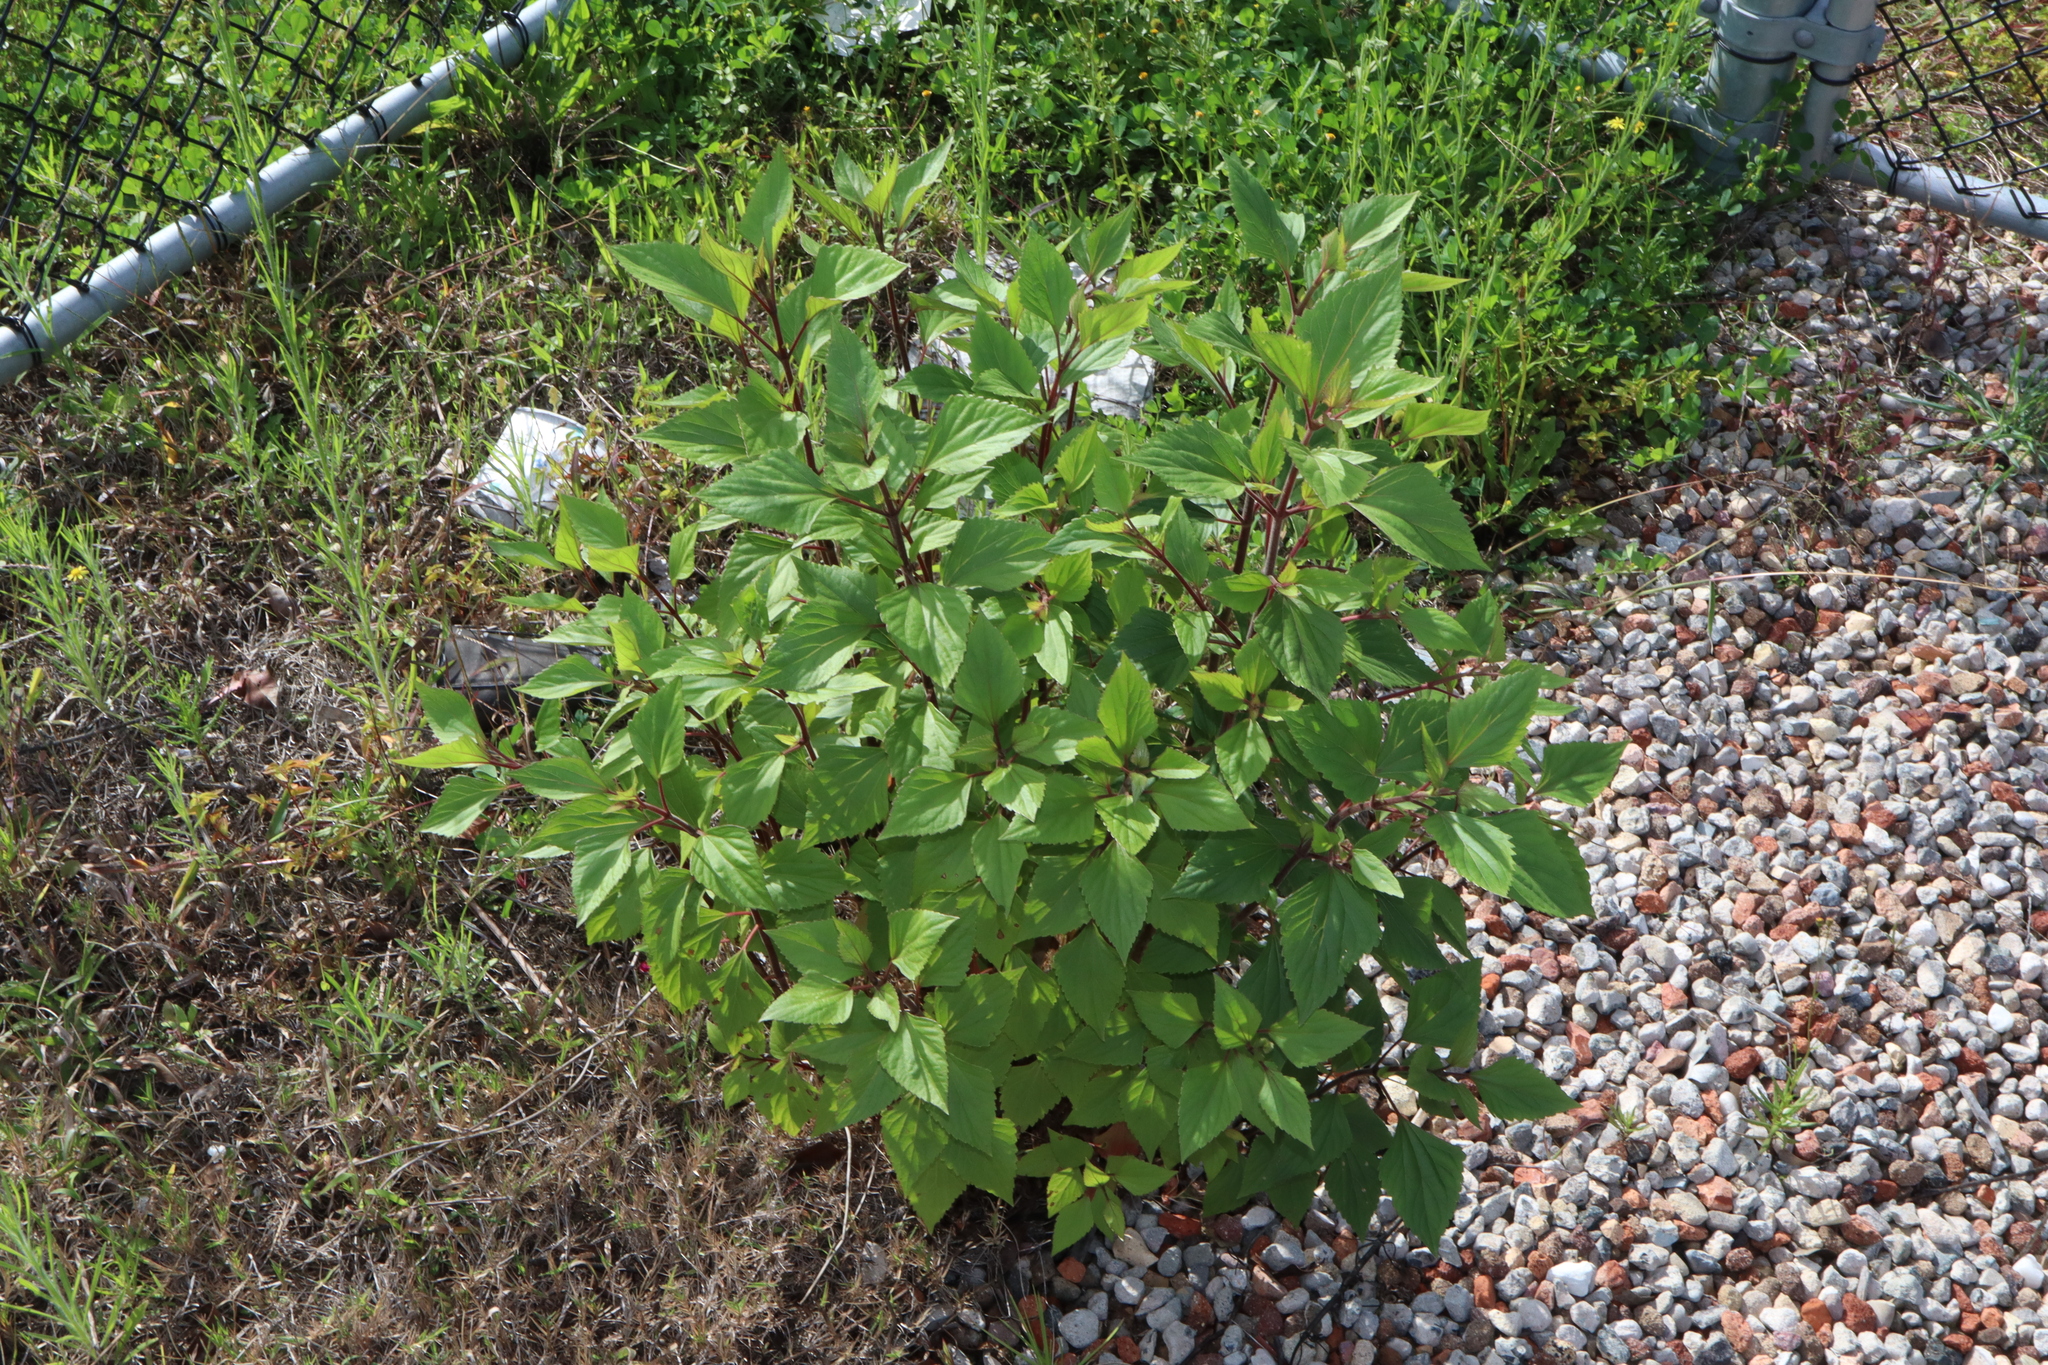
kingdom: Plantae
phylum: Tracheophyta
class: Magnoliopsida
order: Asterales
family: Asteraceae
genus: Ageratina
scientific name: Ageratina adenophora
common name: Sticky snakeroot
